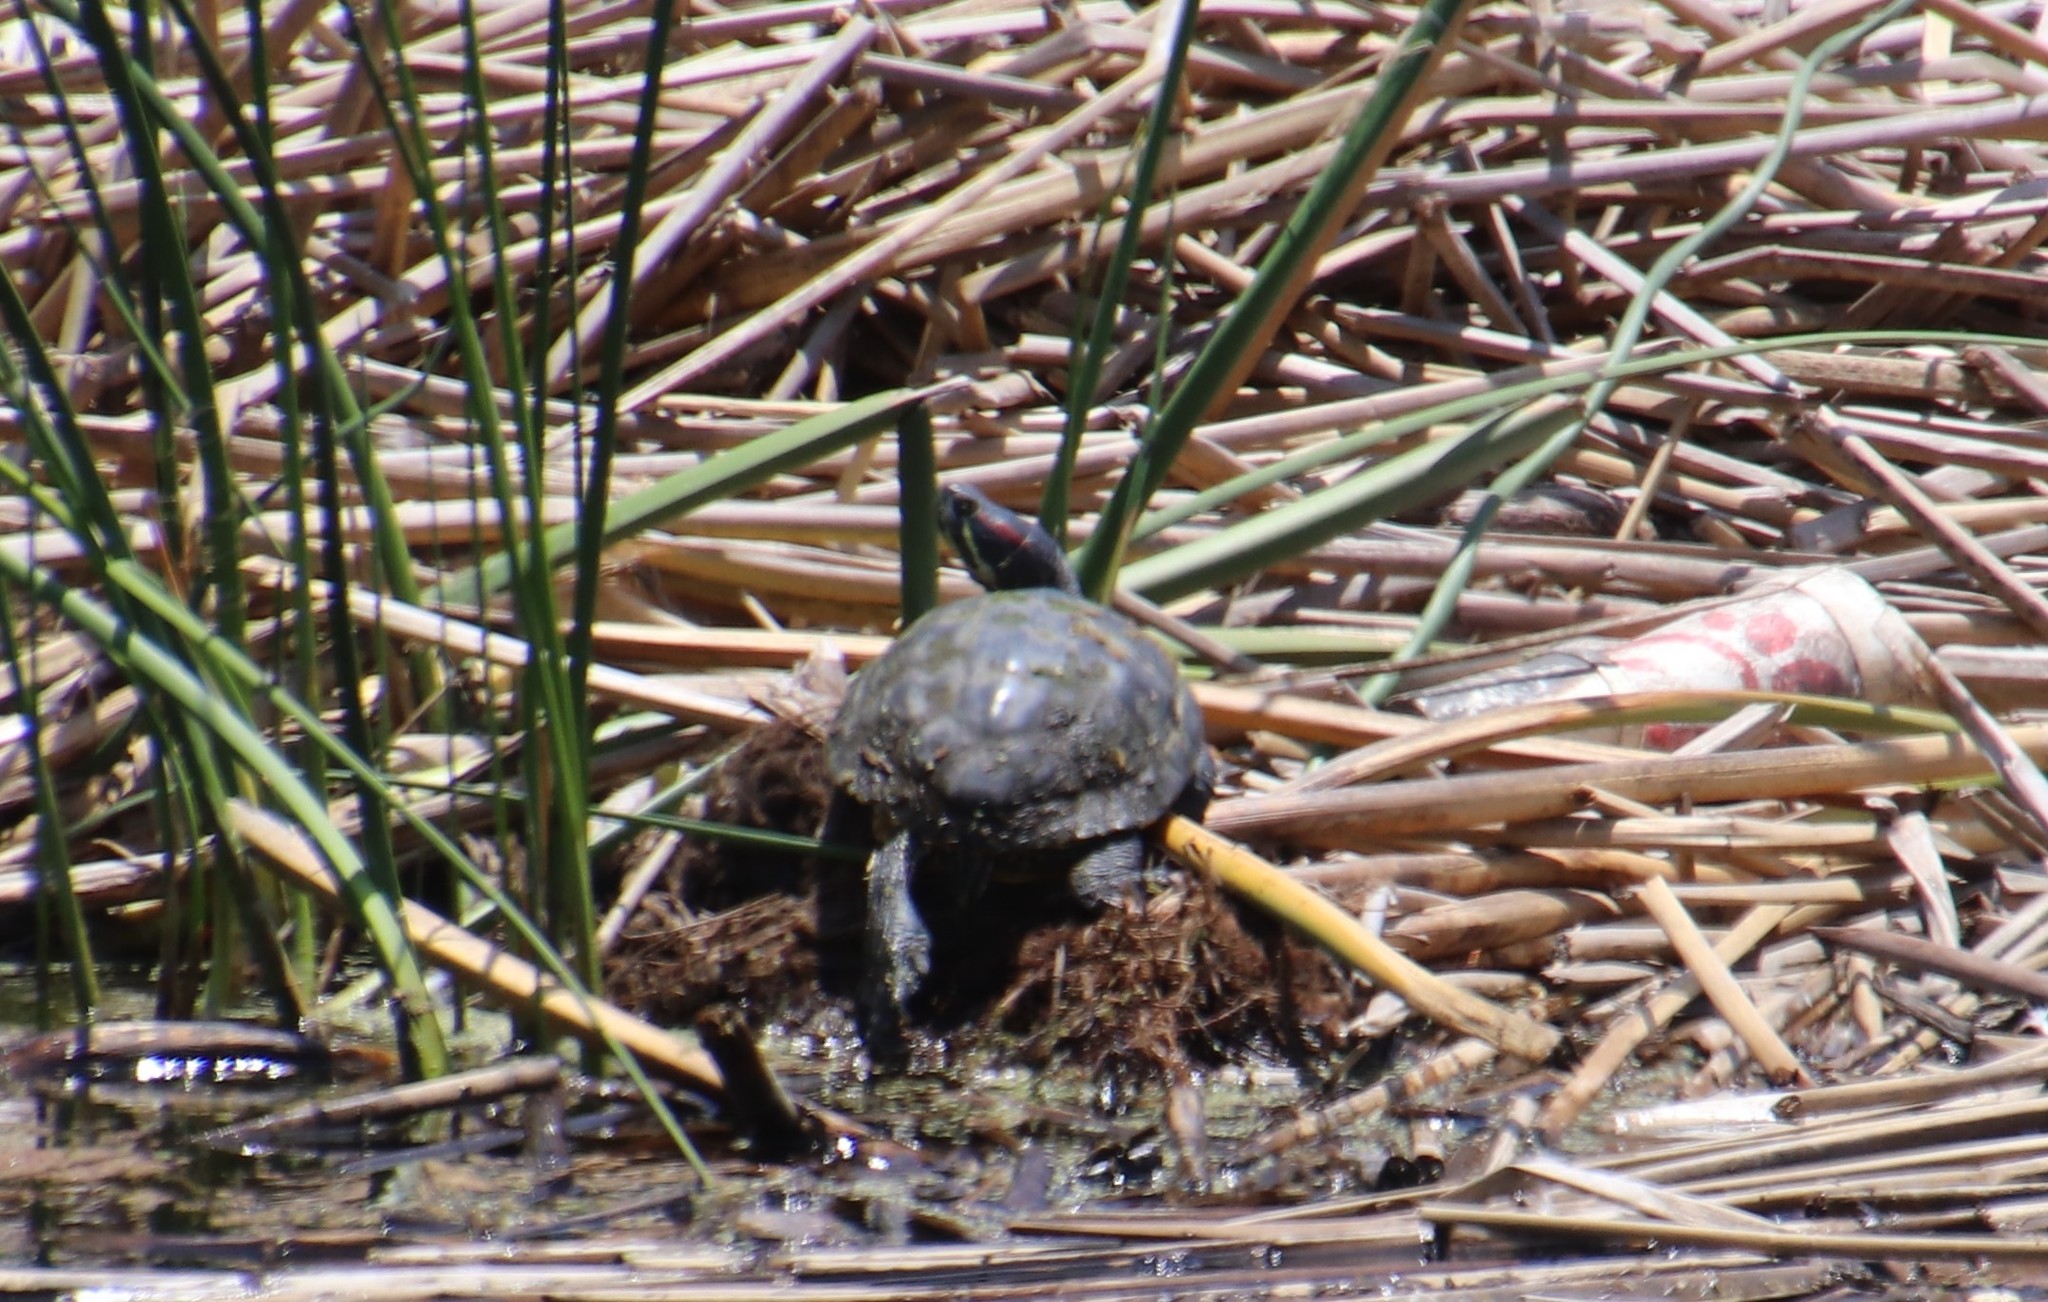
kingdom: Animalia
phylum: Chordata
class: Testudines
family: Emydidae
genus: Trachemys
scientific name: Trachemys scripta
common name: Slider
